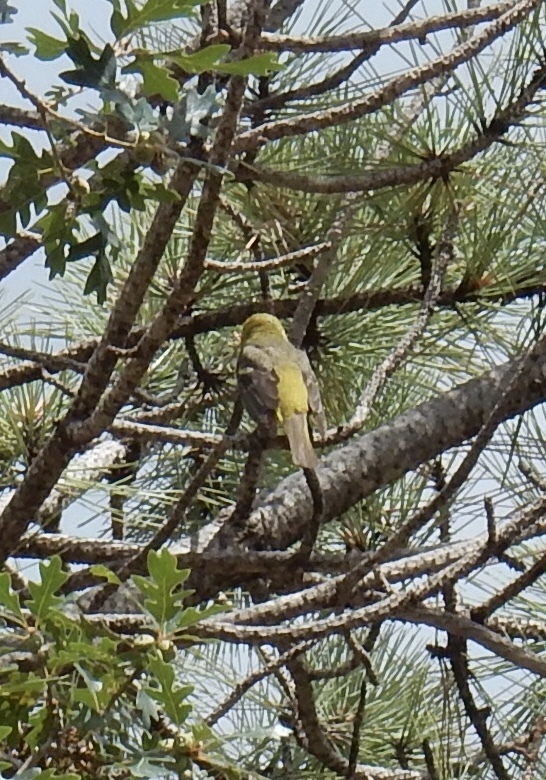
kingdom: Animalia
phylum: Chordata
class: Aves
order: Passeriformes
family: Cardinalidae
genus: Piranga
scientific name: Piranga ludoviciana
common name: Western tanager
